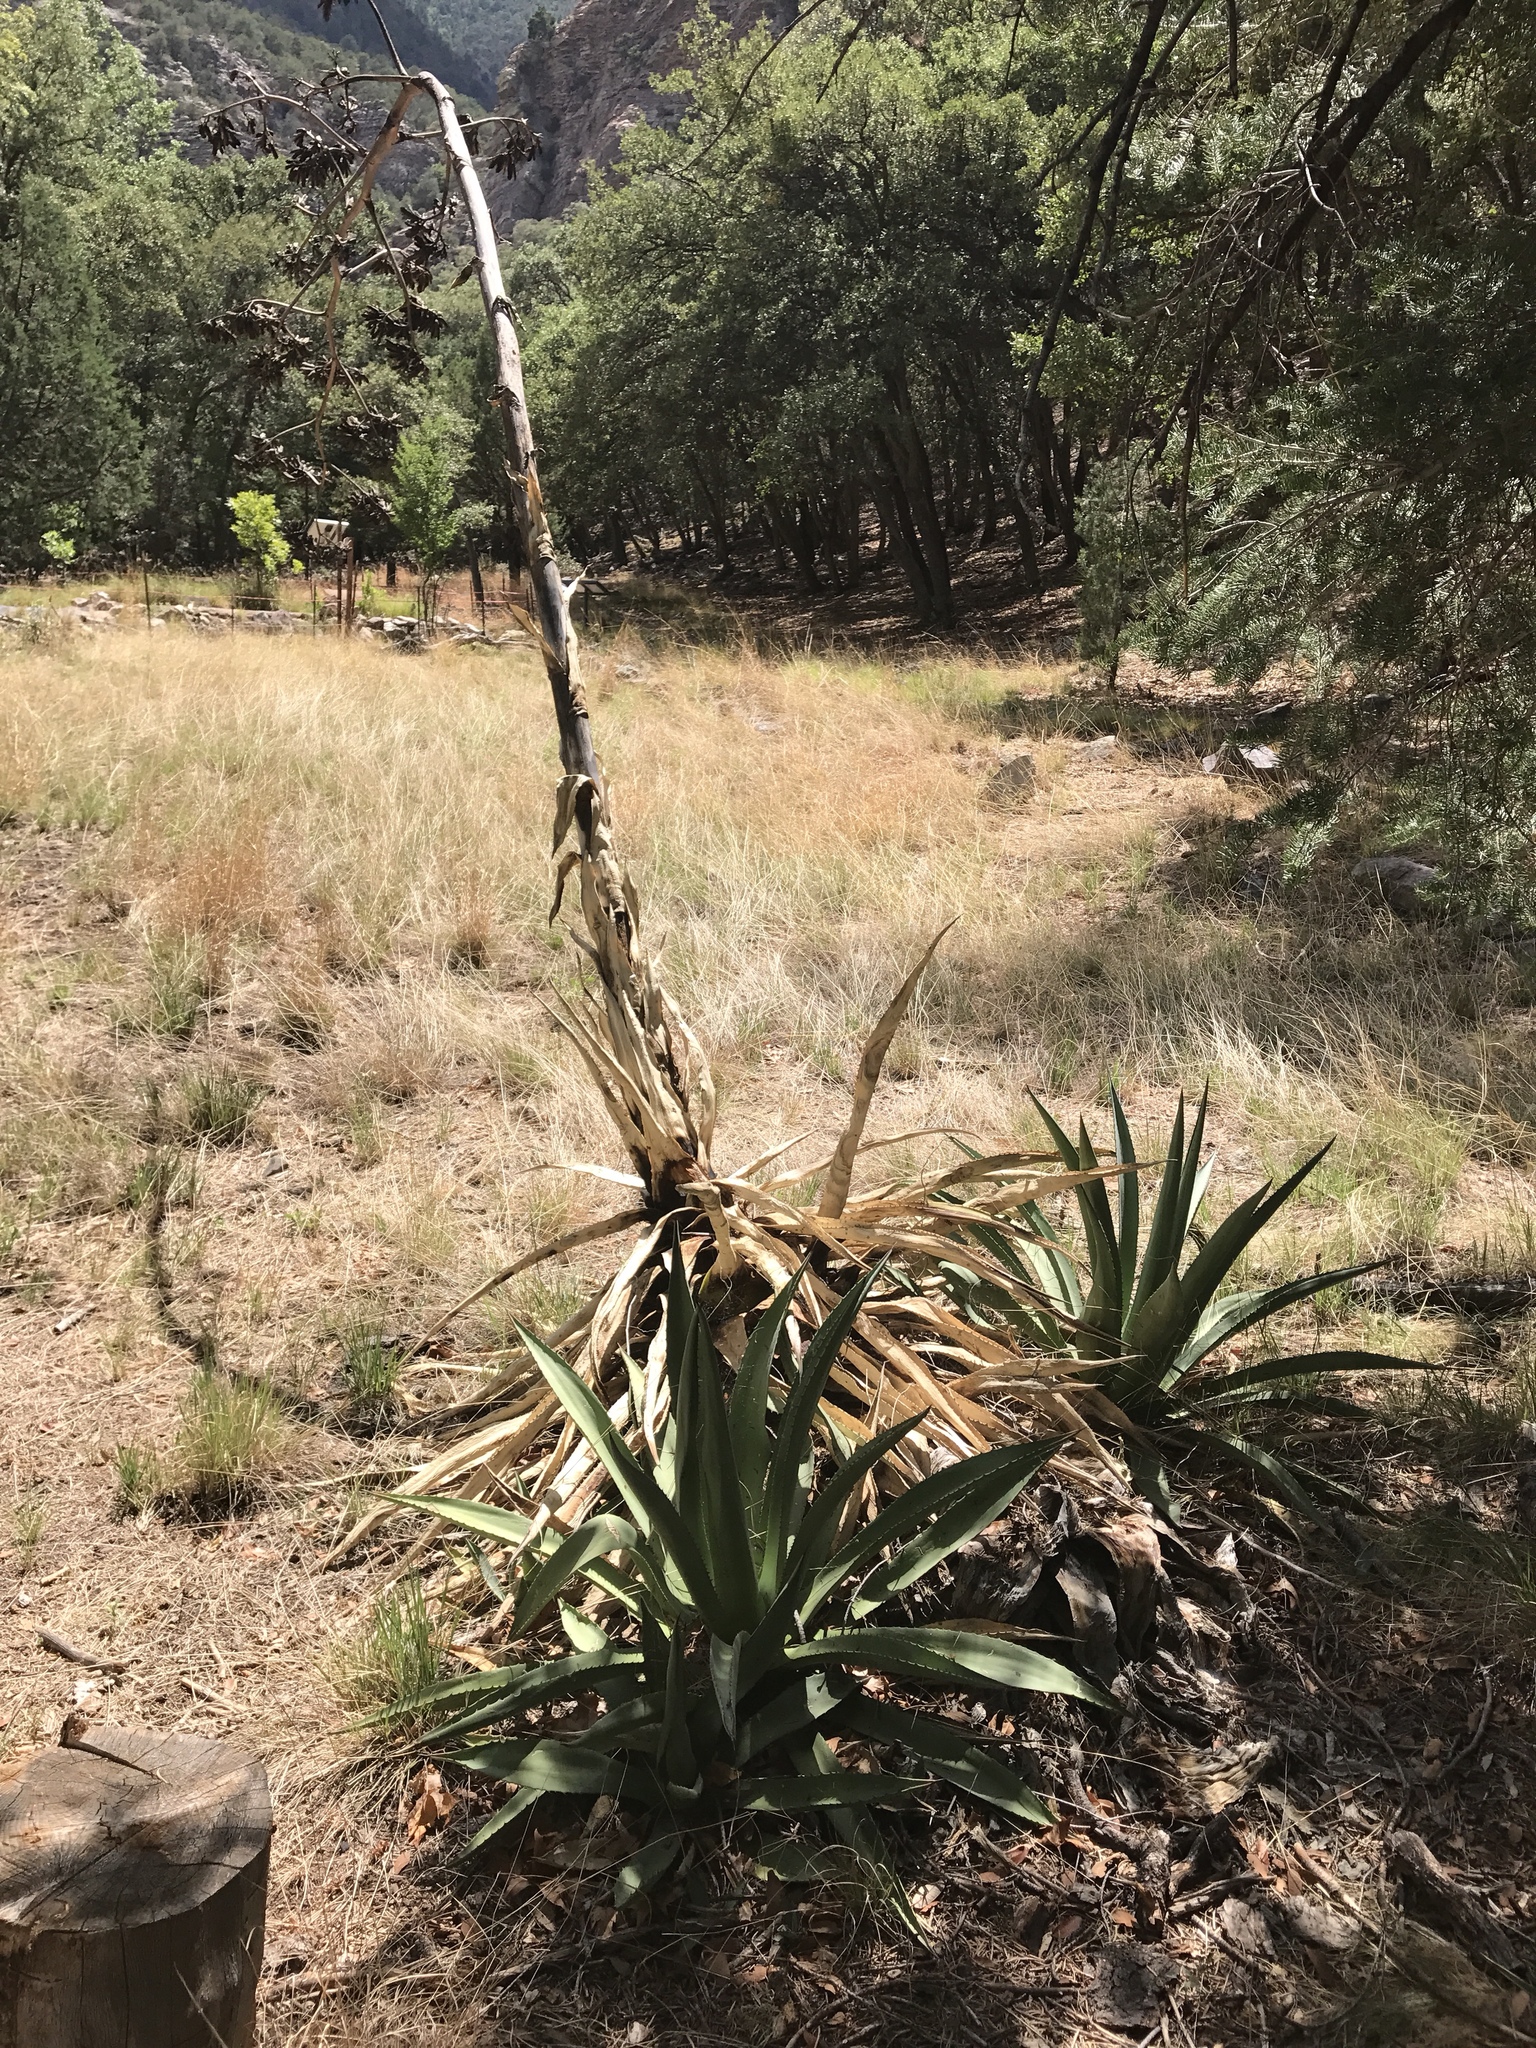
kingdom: Plantae
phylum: Tracheophyta
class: Liliopsida
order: Asparagales
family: Asparagaceae
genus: Agave
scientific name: Agave palmeri
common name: Palmer agave
